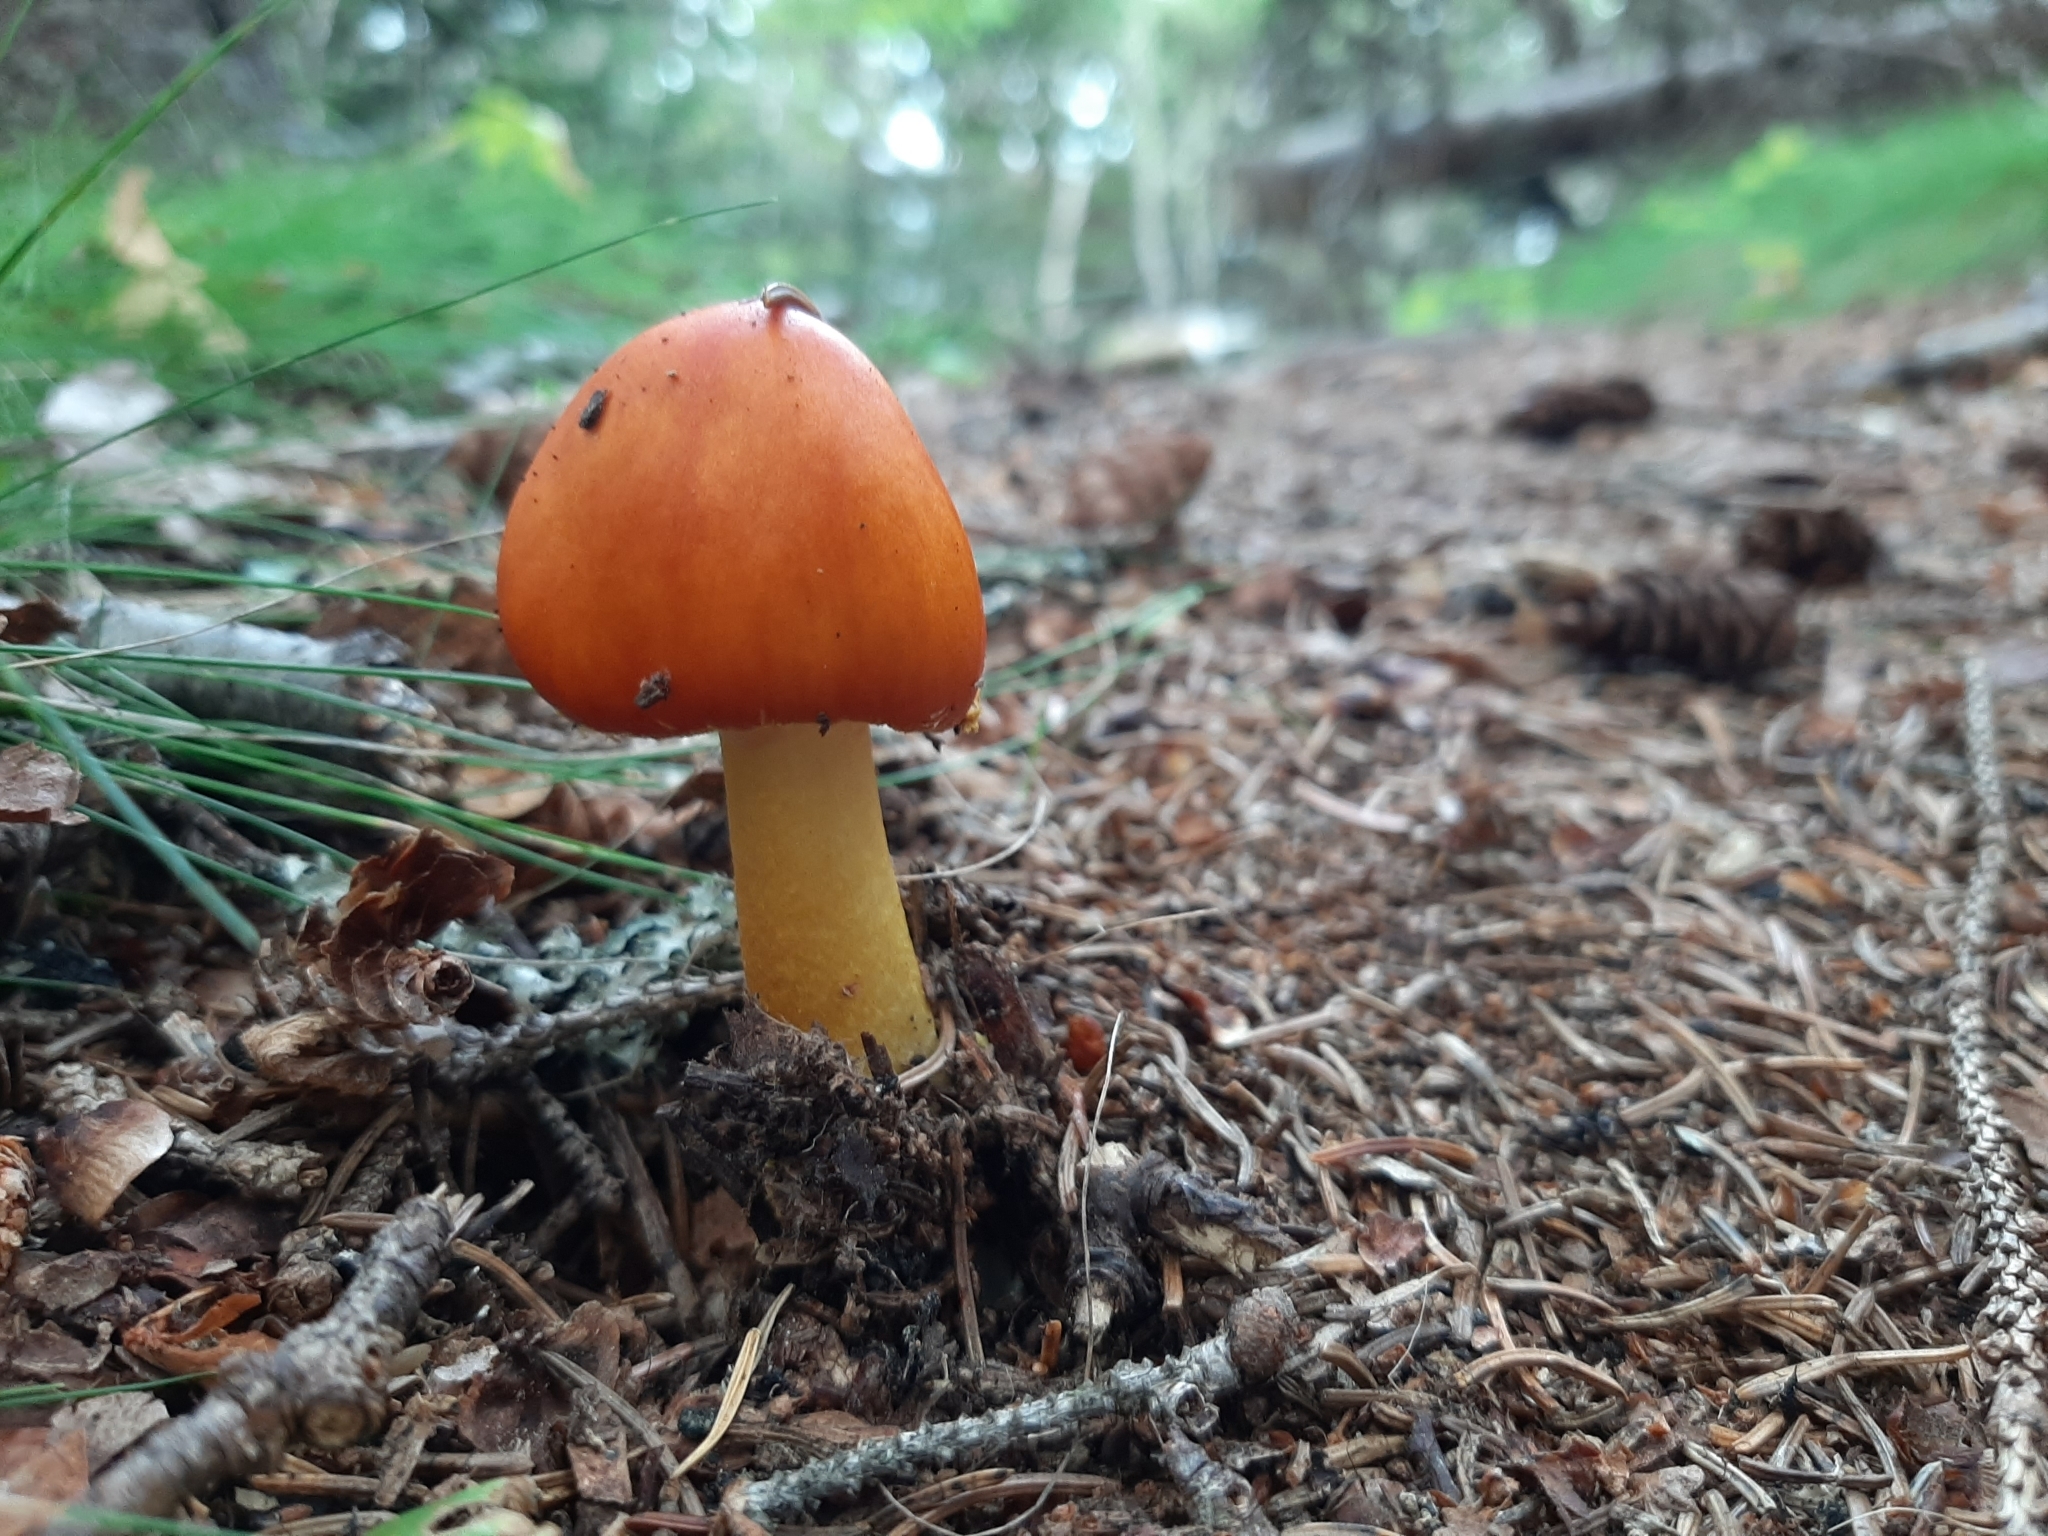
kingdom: Fungi
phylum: Basidiomycota
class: Agaricomycetes
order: Agaricales
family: Amanitaceae
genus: Amanita
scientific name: Amanita flavoconia
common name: Yellow patches
